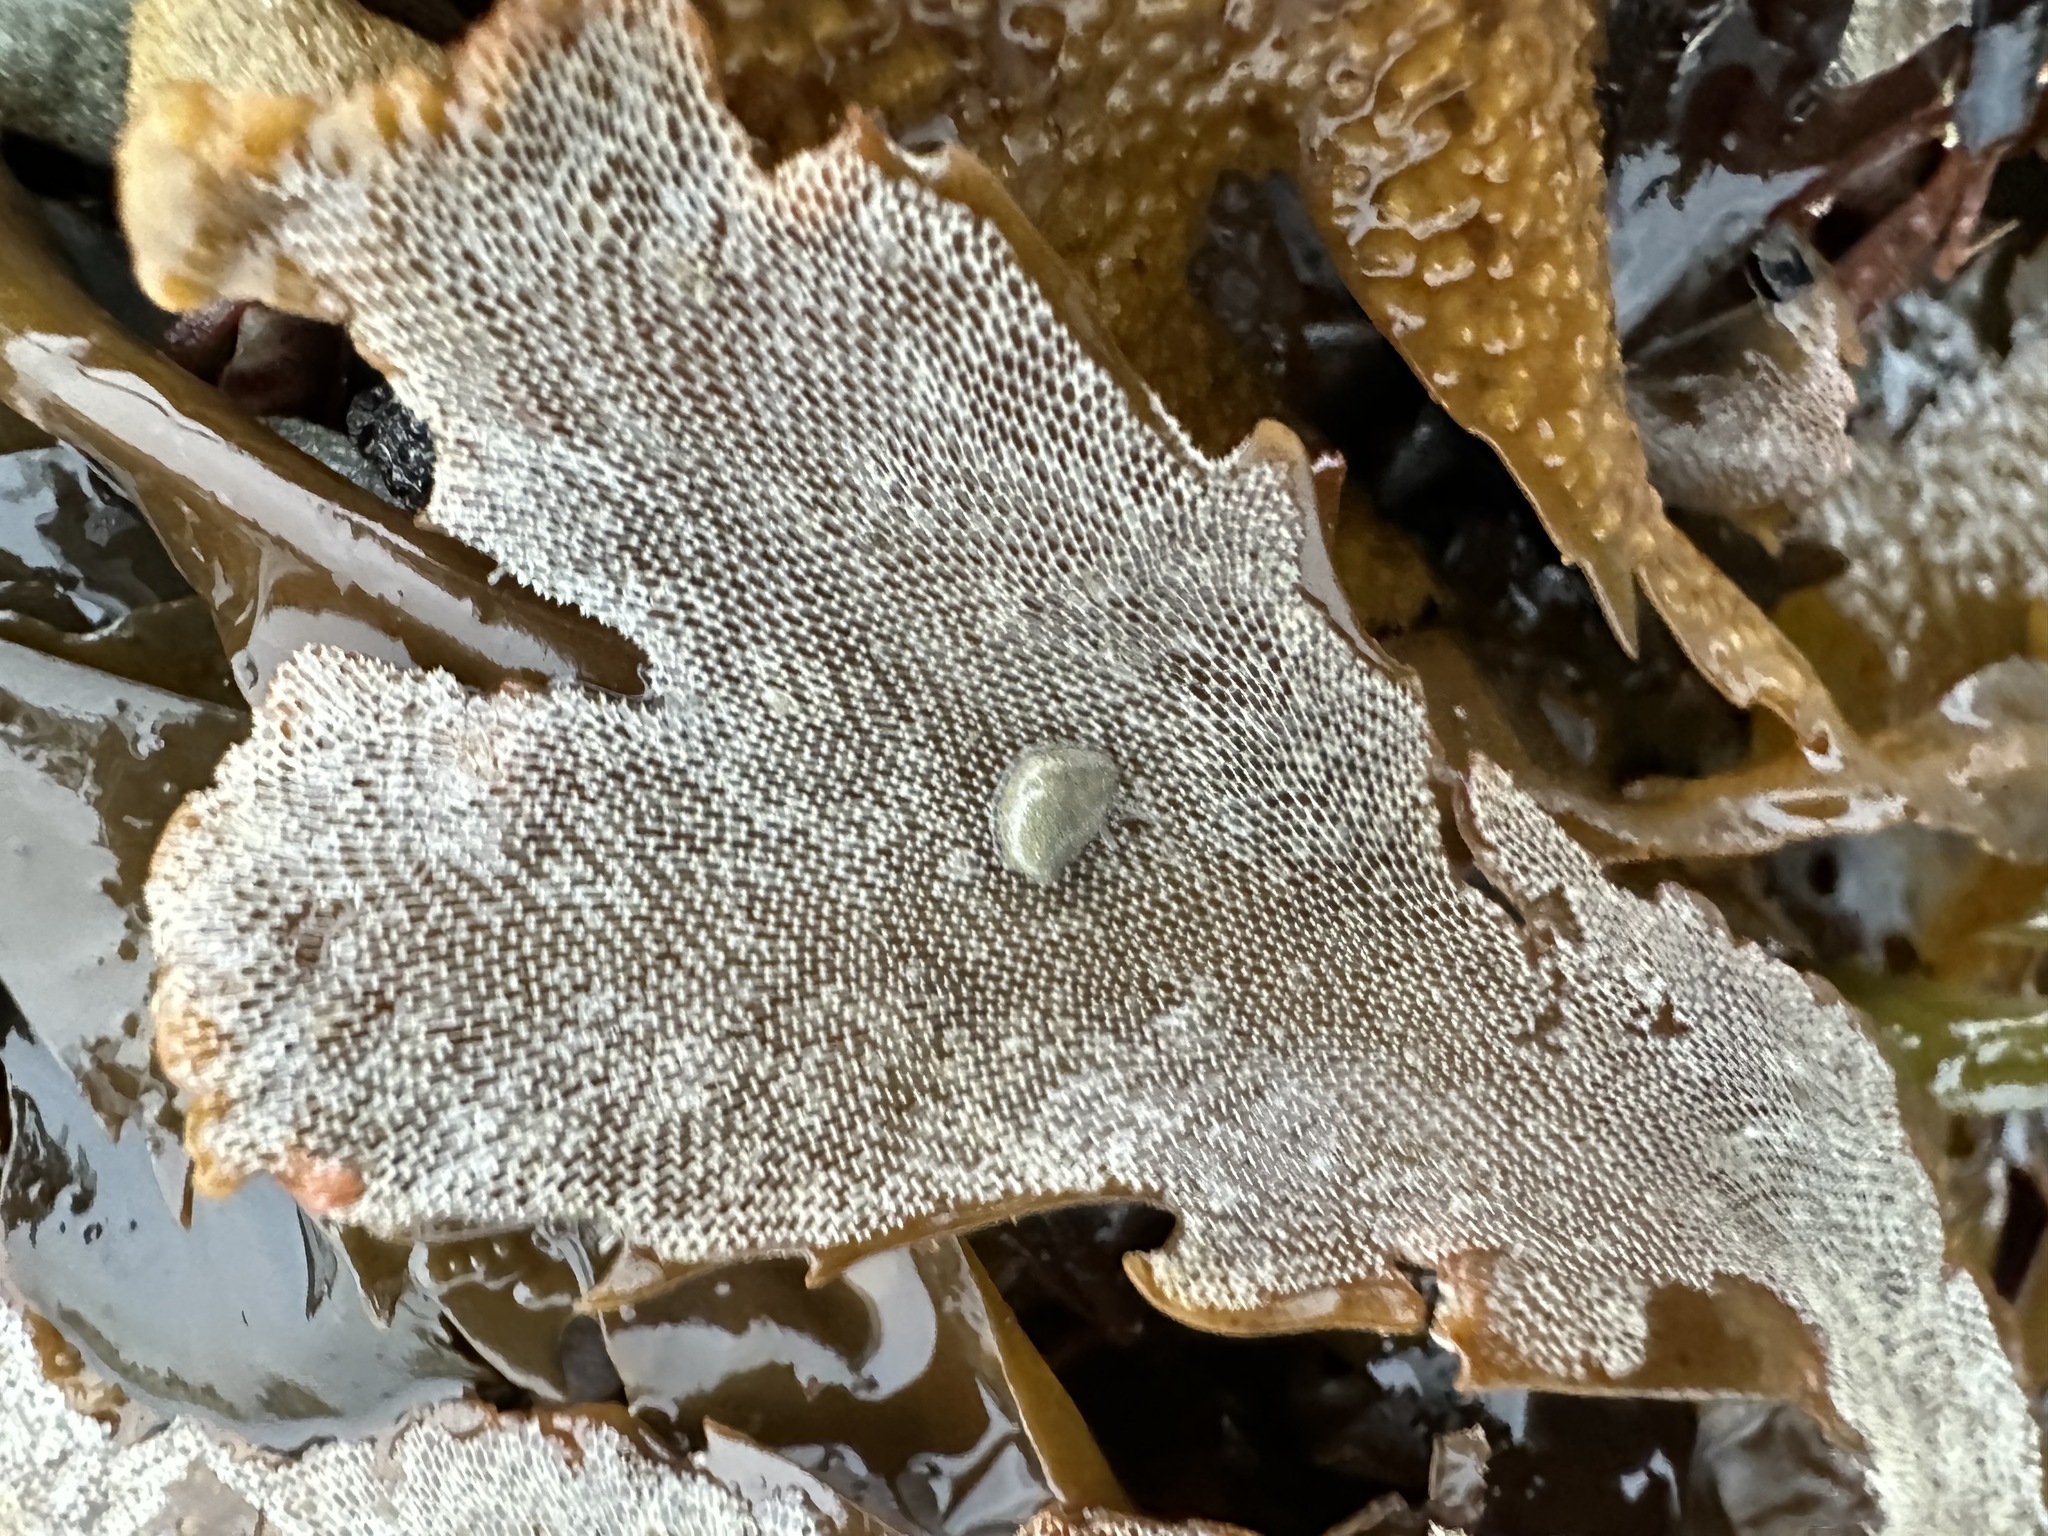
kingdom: Animalia
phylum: Bryozoa
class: Gymnolaemata
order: Cheilostomatida
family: Membraniporidae
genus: Membranipora
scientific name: Membranipora membranacea
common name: Sea mat
